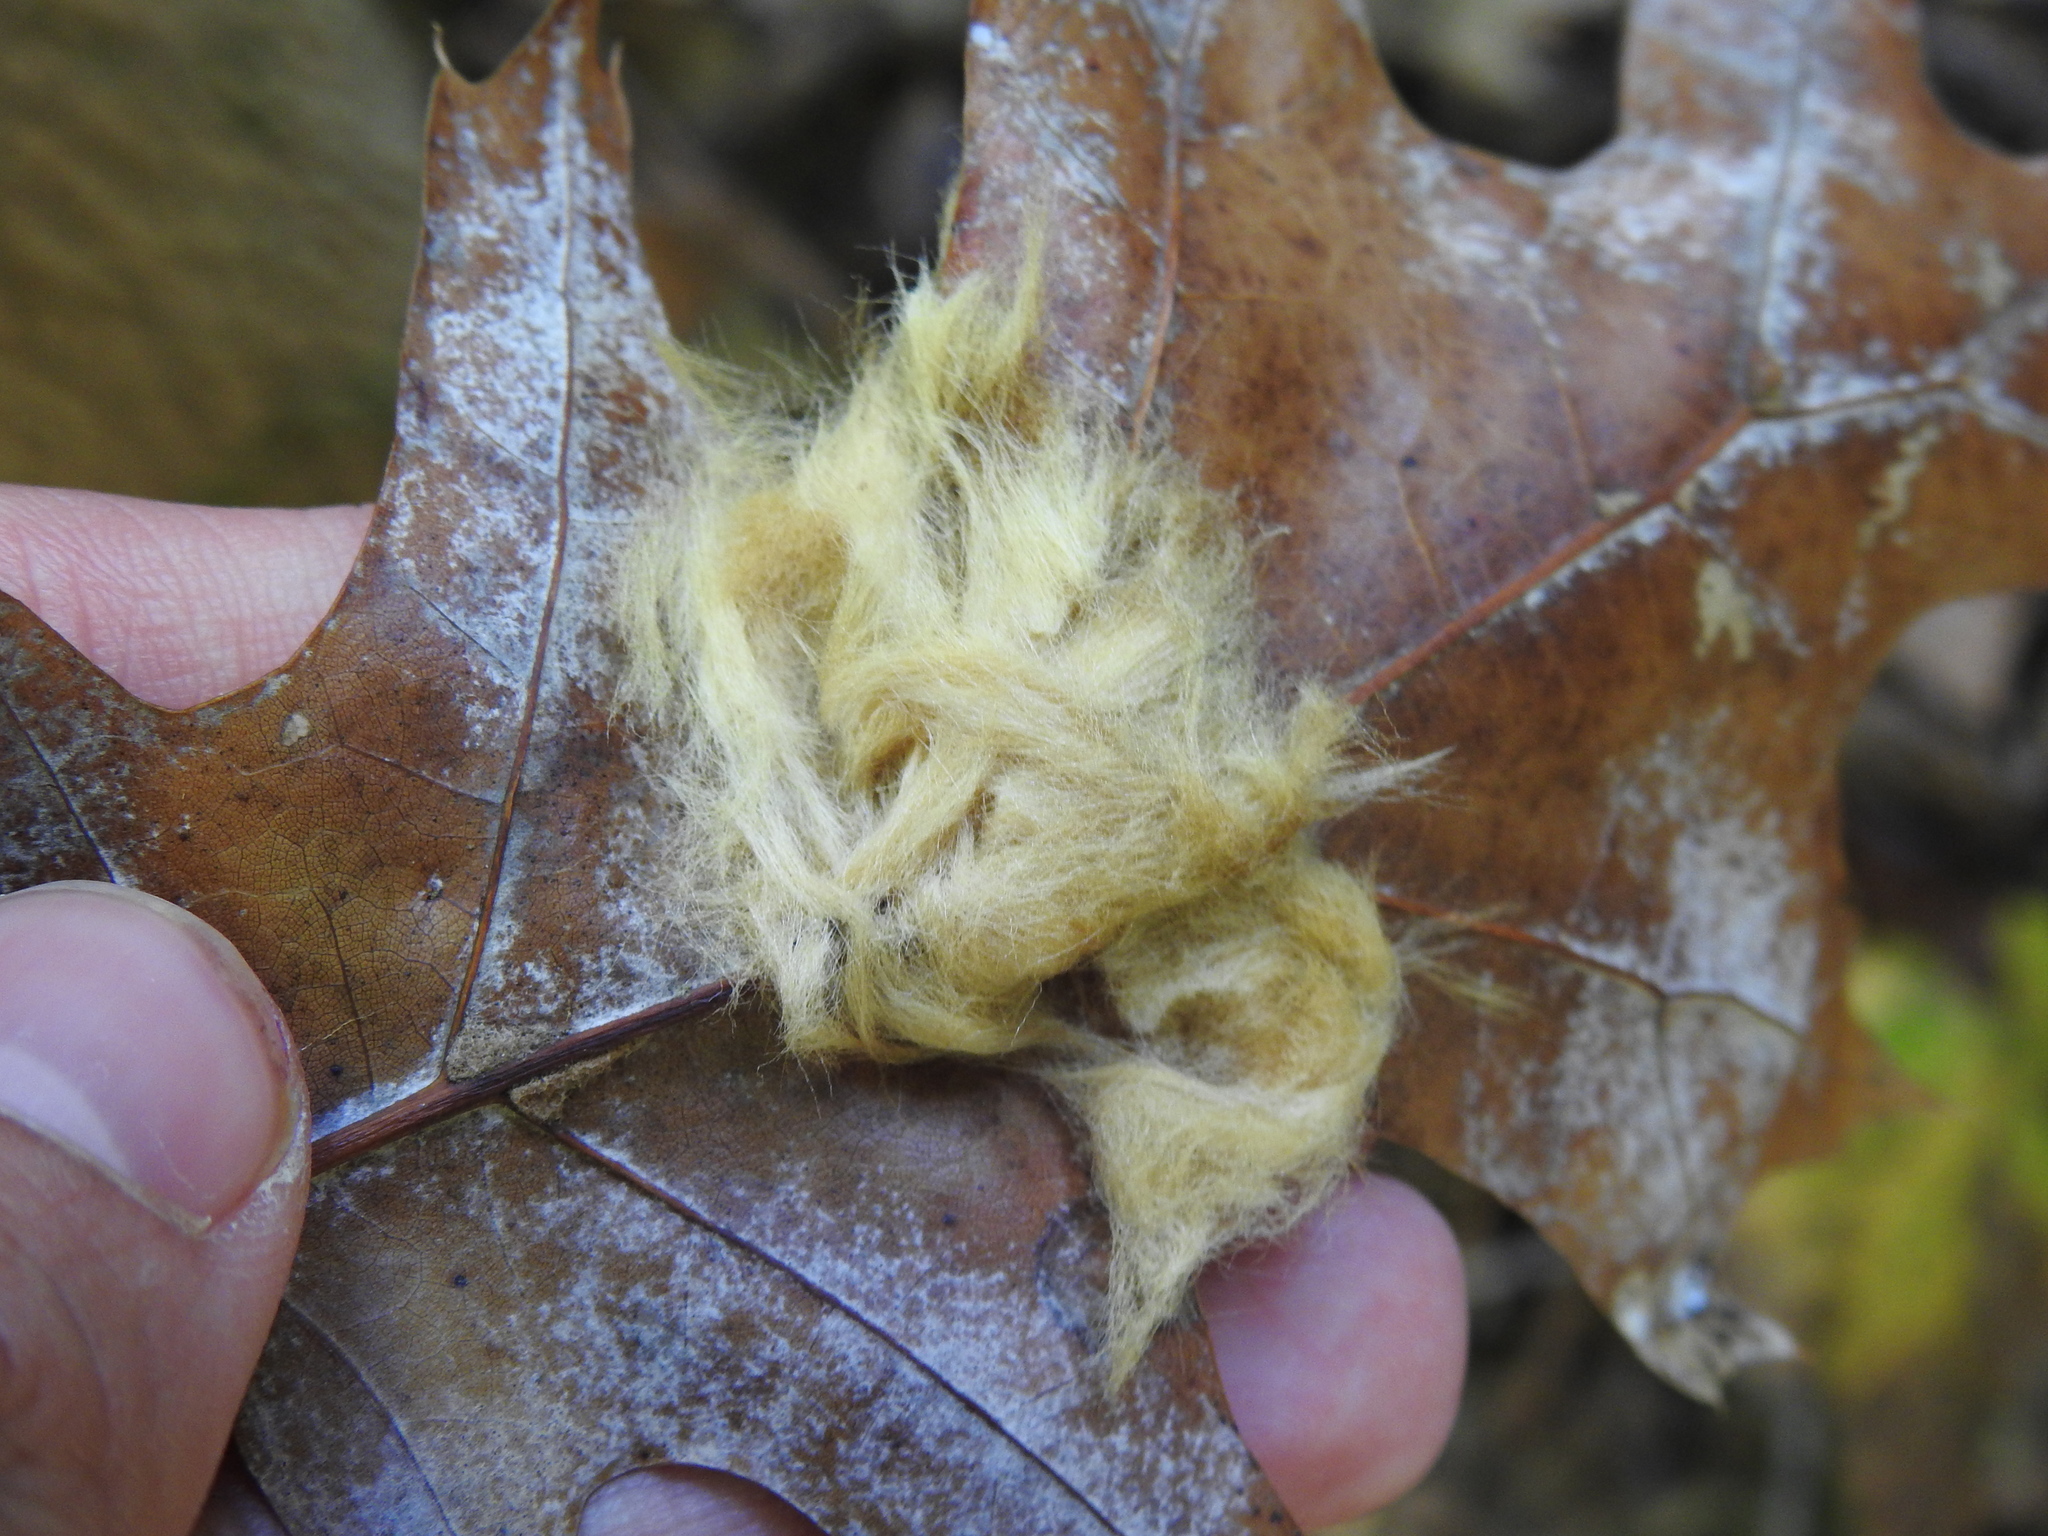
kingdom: Animalia
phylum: Arthropoda
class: Insecta
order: Hymenoptera
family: Cynipidae
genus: Callirhytis
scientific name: Callirhytis
